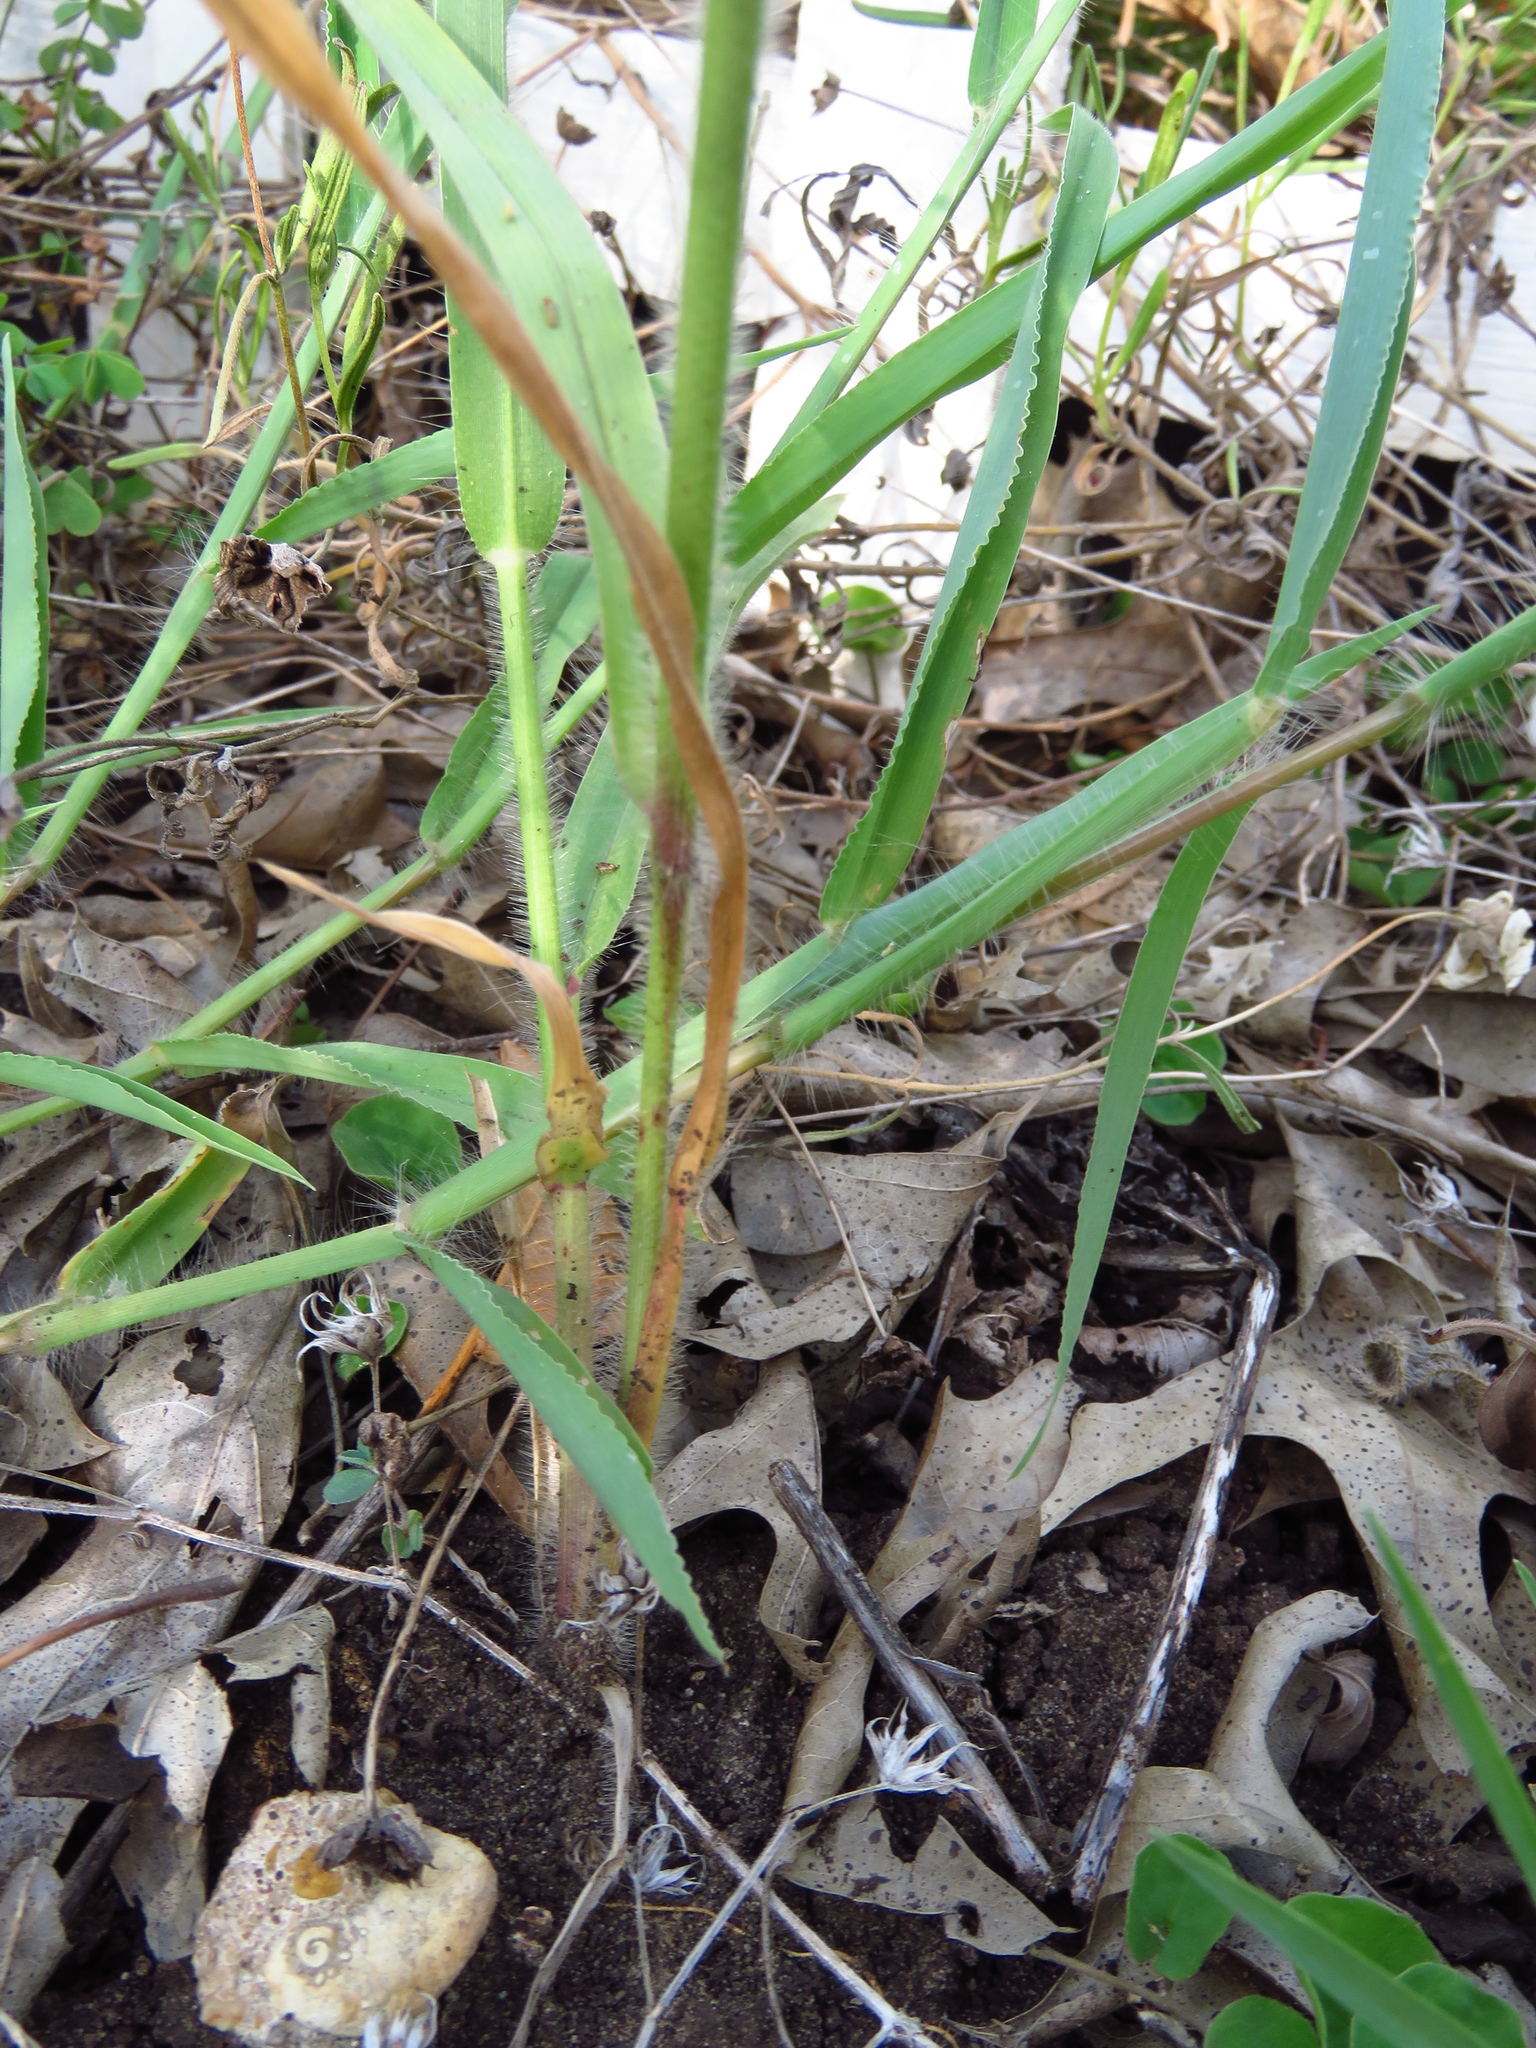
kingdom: Plantae
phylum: Tracheophyta
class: Liliopsida
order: Poales
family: Poaceae
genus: Panicum
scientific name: Panicum capillare
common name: Witch-grass
